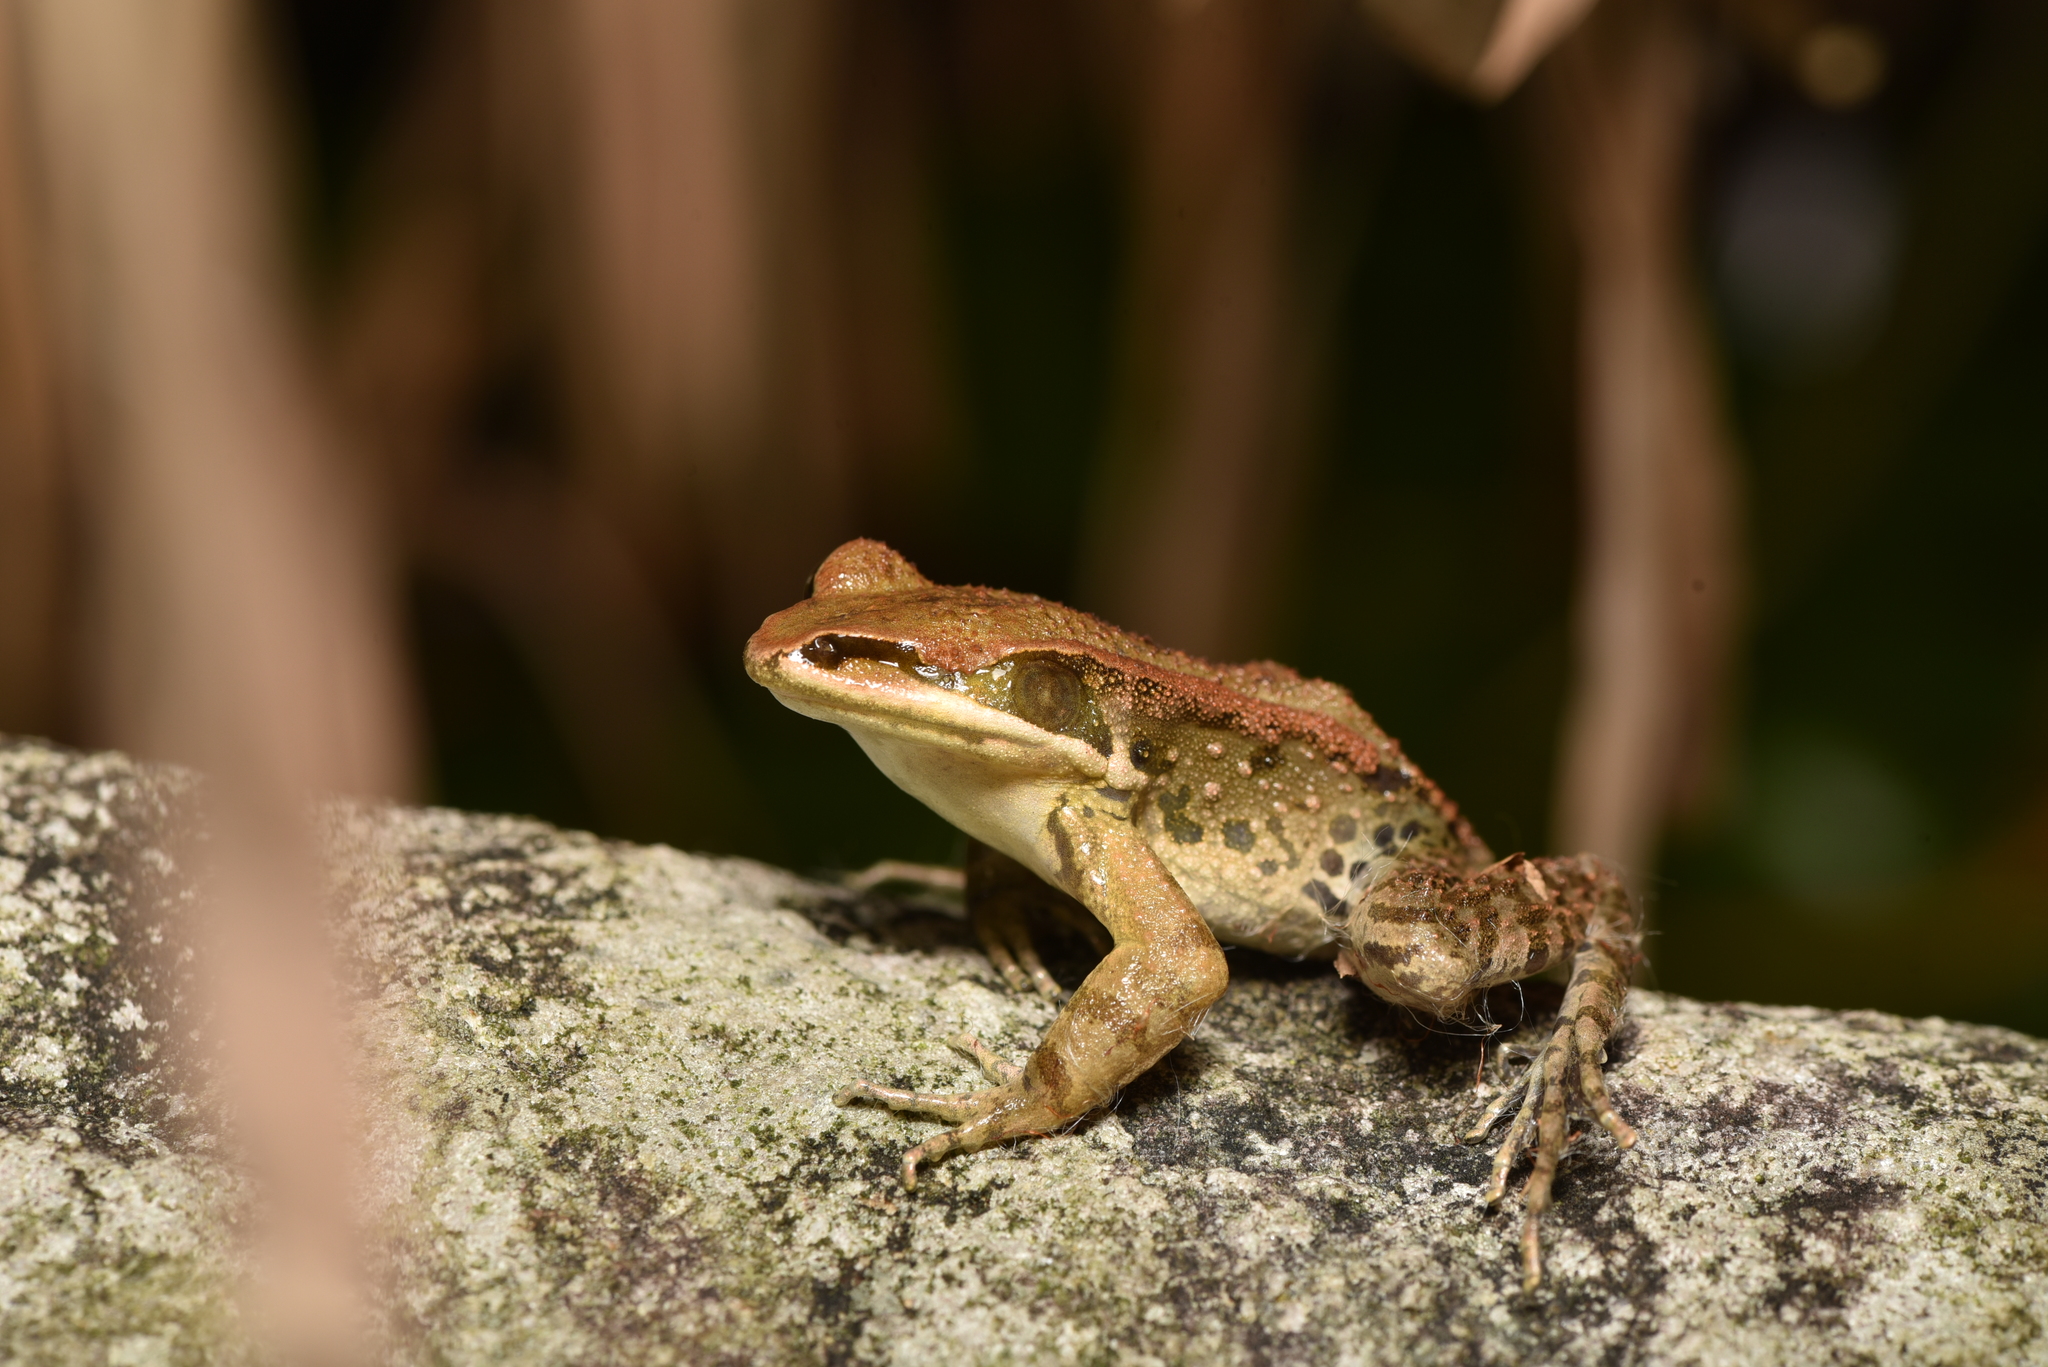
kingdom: Animalia
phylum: Chordata
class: Amphibia
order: Anura
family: Ranidae
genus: Hylarana
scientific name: Hylarana latouchii
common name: Broad-folded frog
